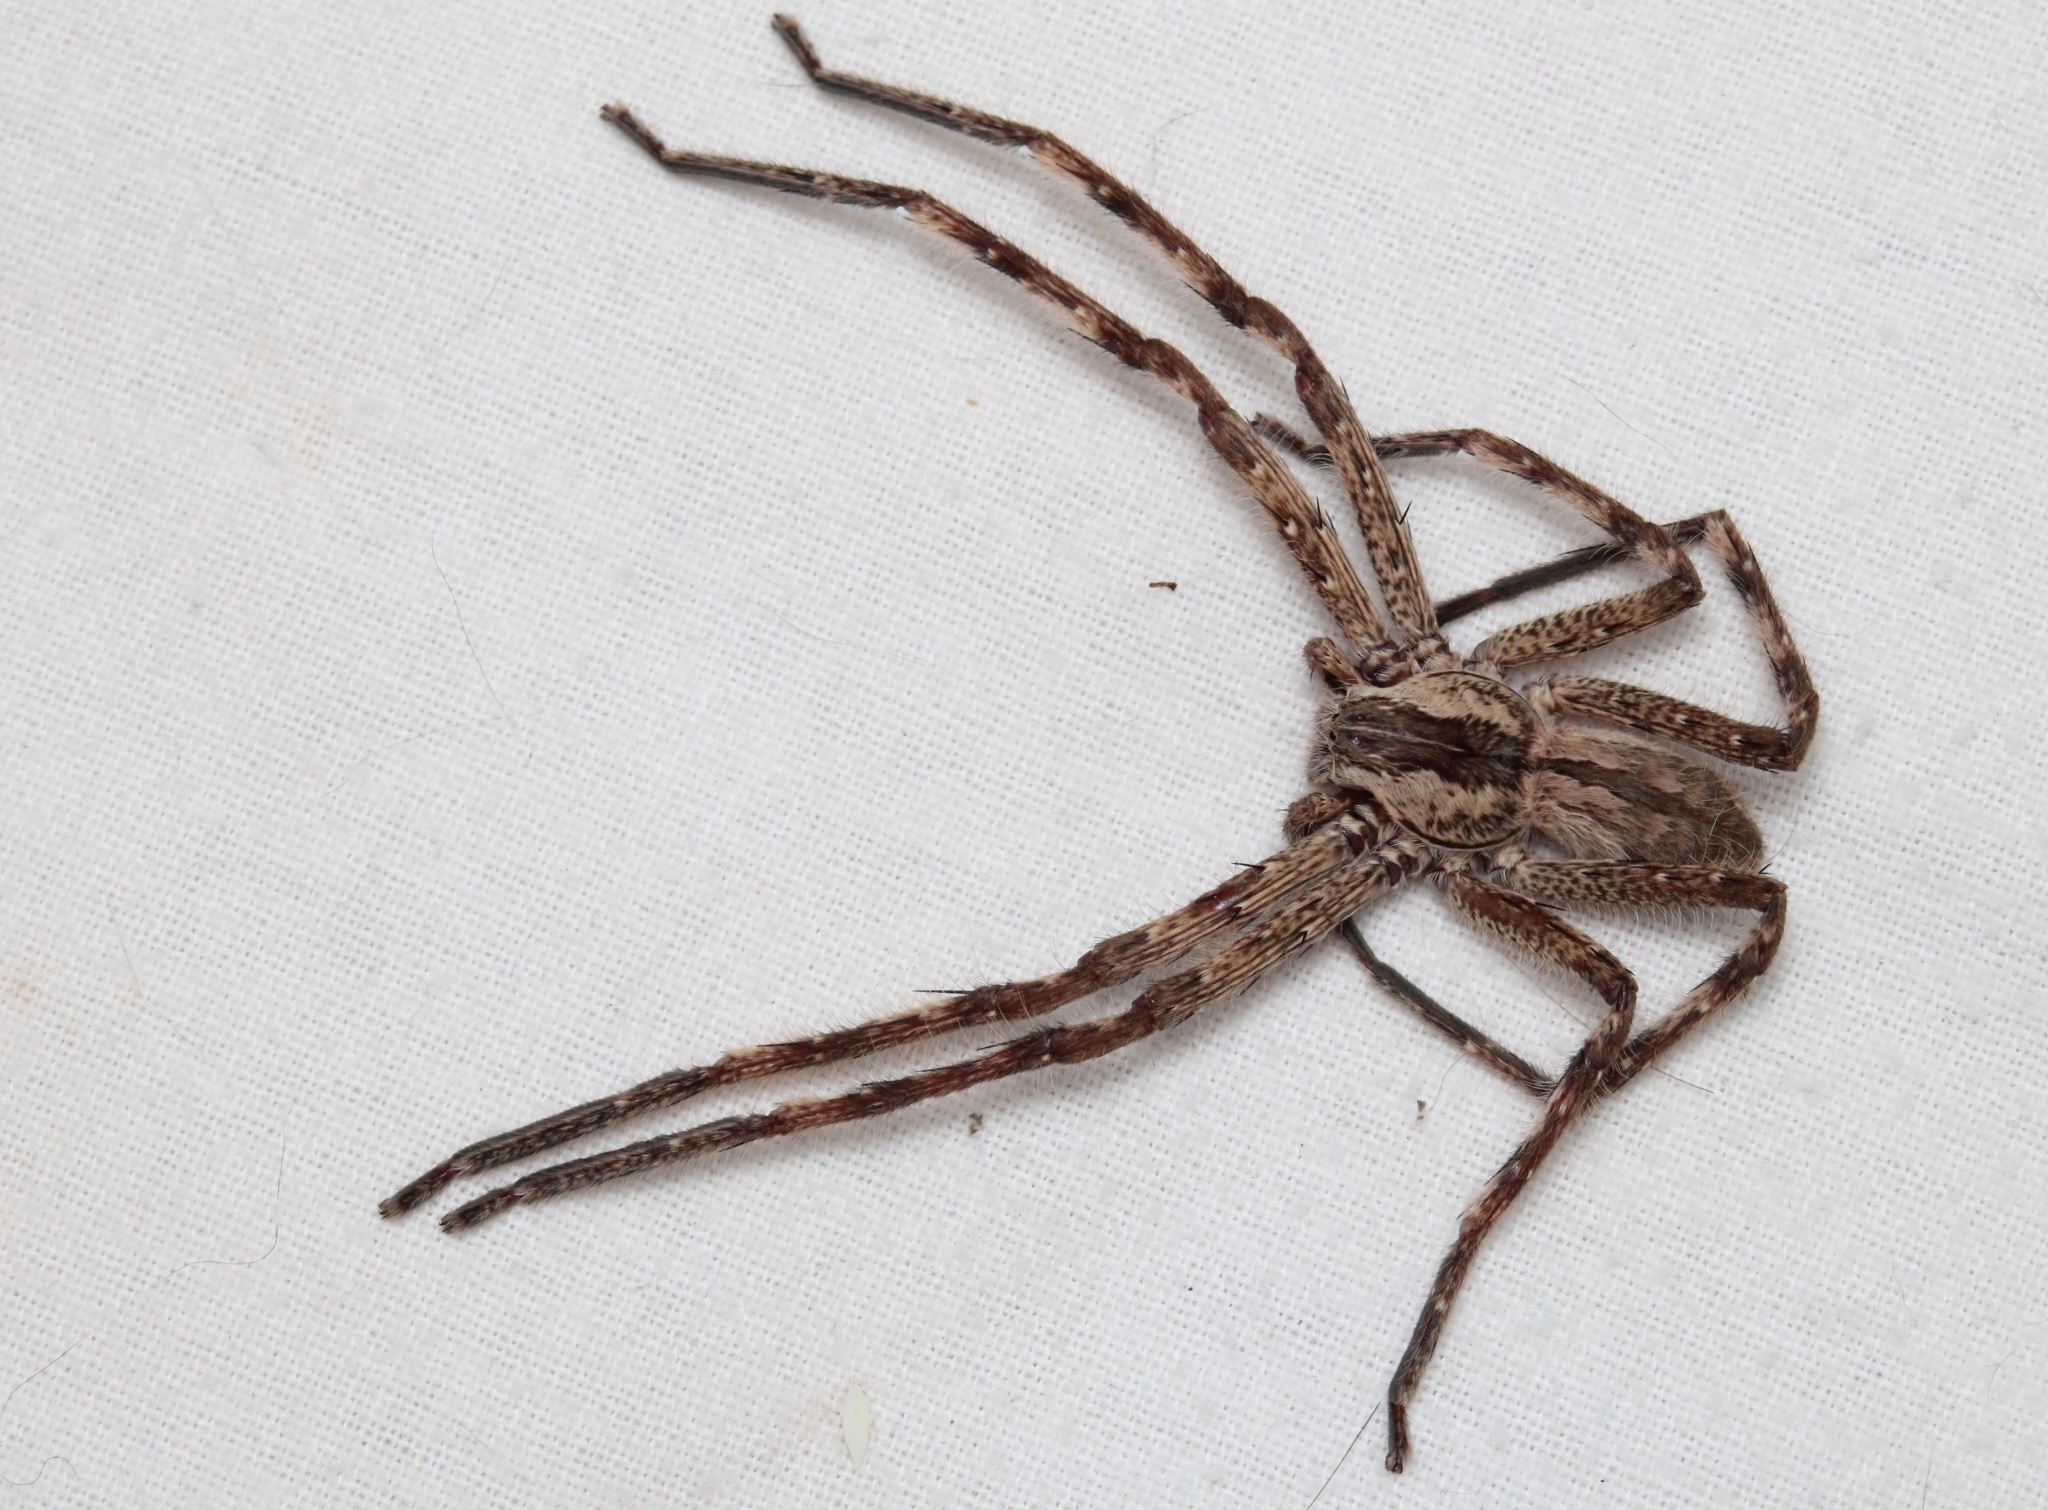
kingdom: Animalia
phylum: Arthropoda
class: Arachnida
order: Araneae
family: Sparassidae
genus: Palystes
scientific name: Palystes johnstoni
